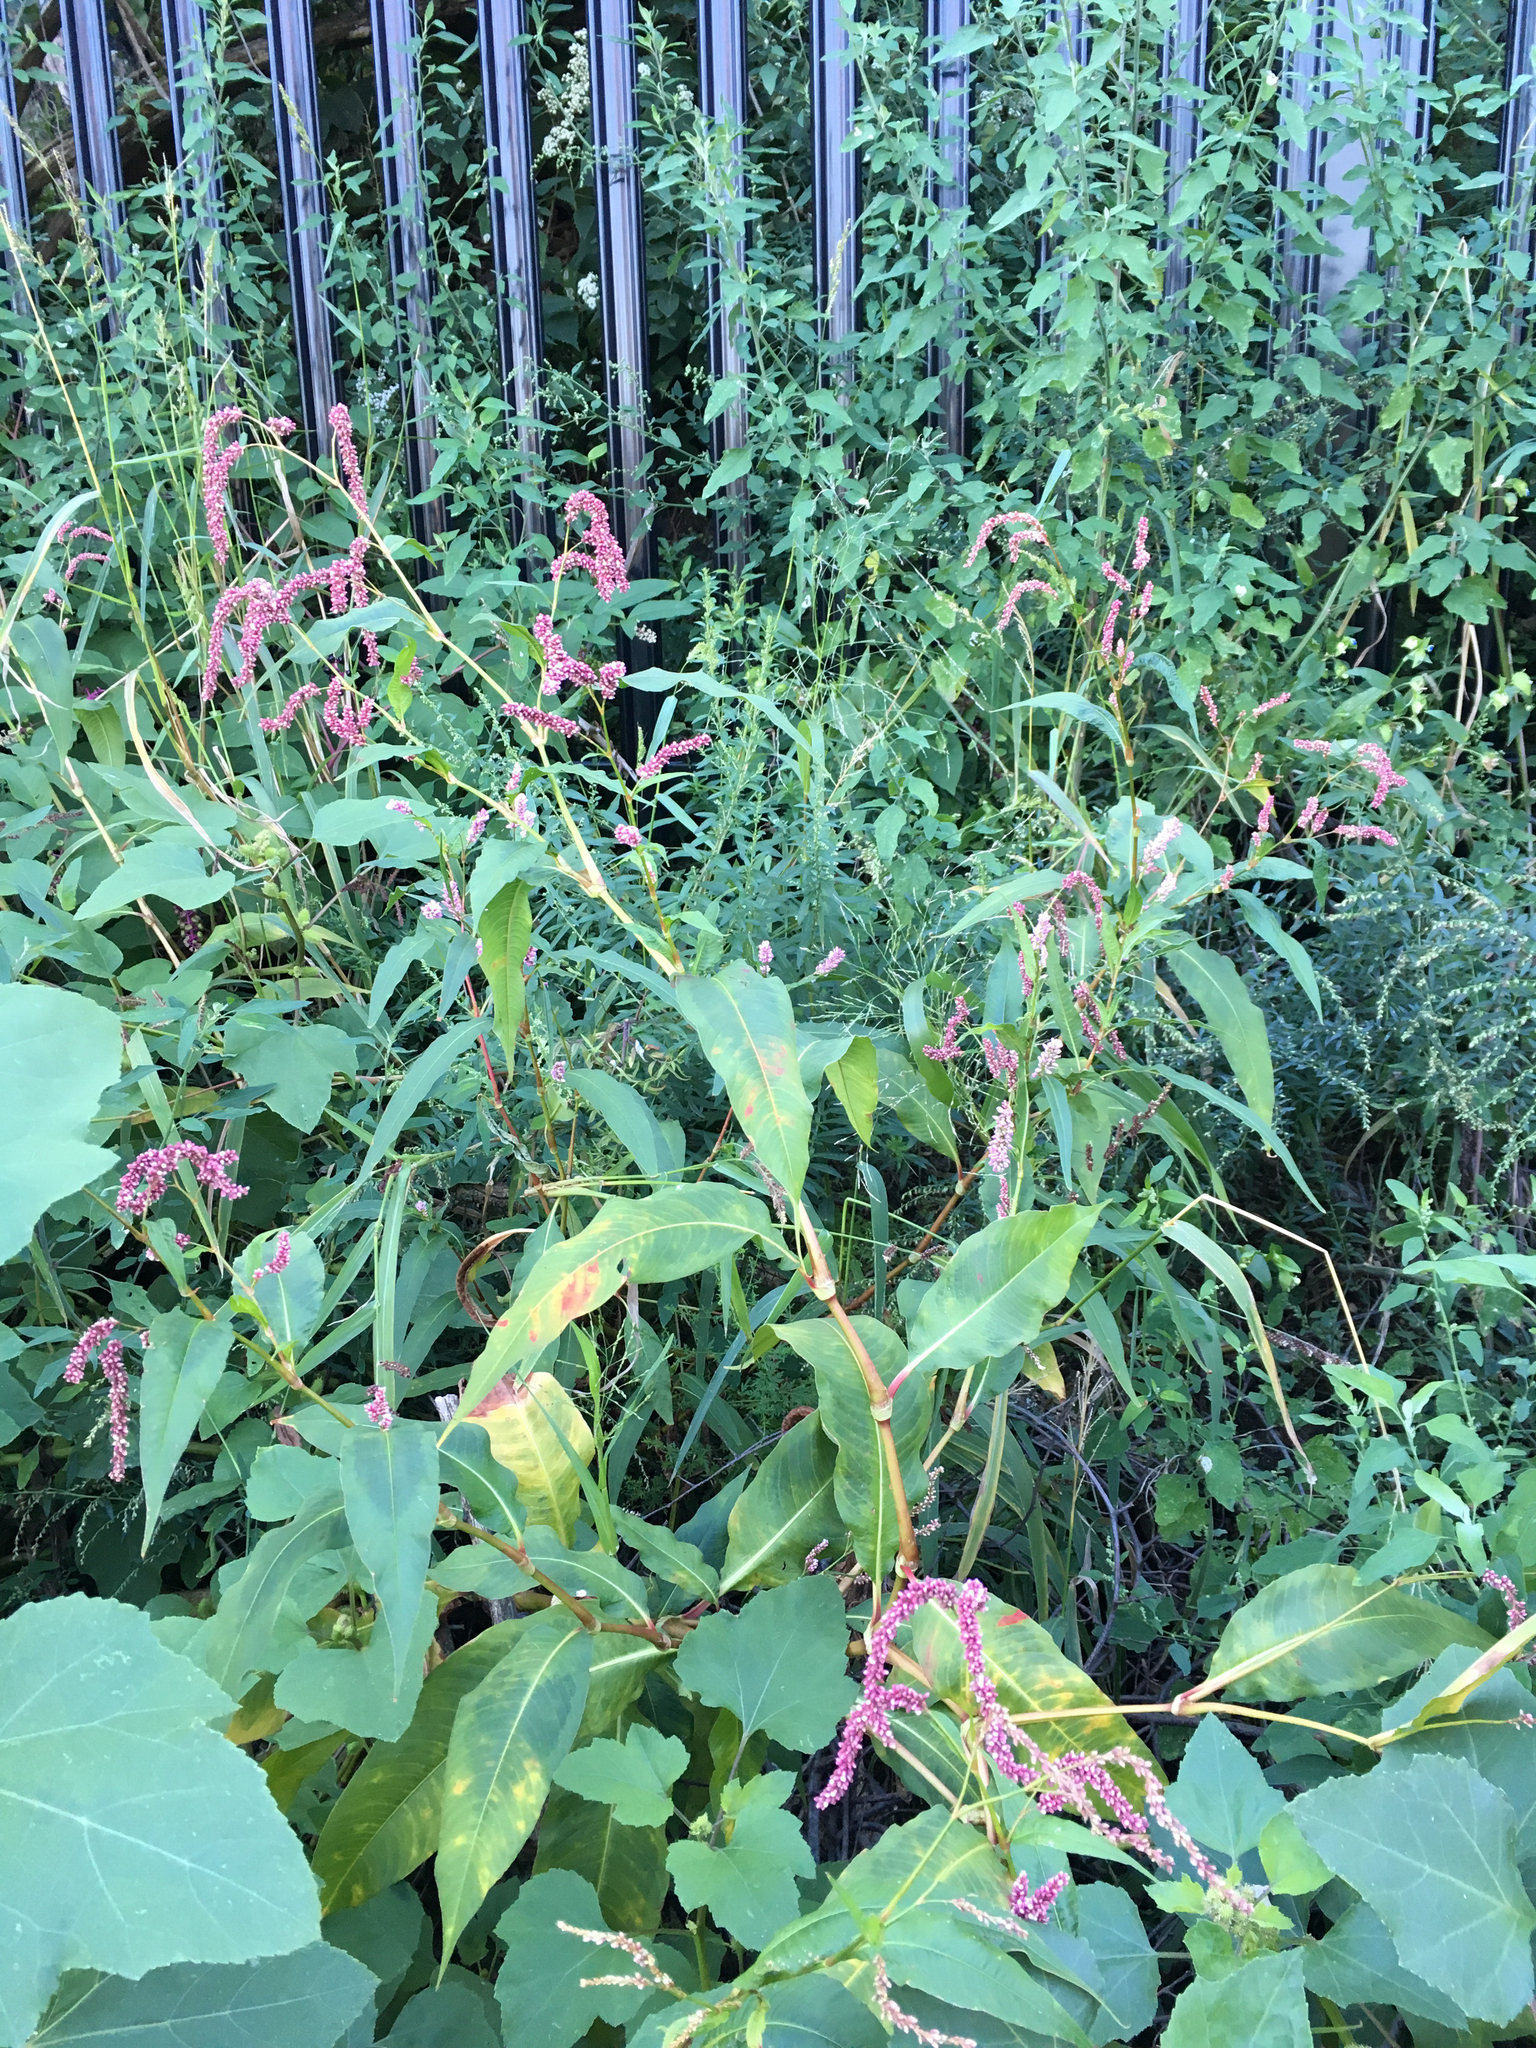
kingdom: Plantae
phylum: Tracheophyta
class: Magnoliopsida
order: Caryophyllales
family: Polygonaceae
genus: Persicaria
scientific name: Persicaria extremiorientalis
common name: Far-eastern smartweed
